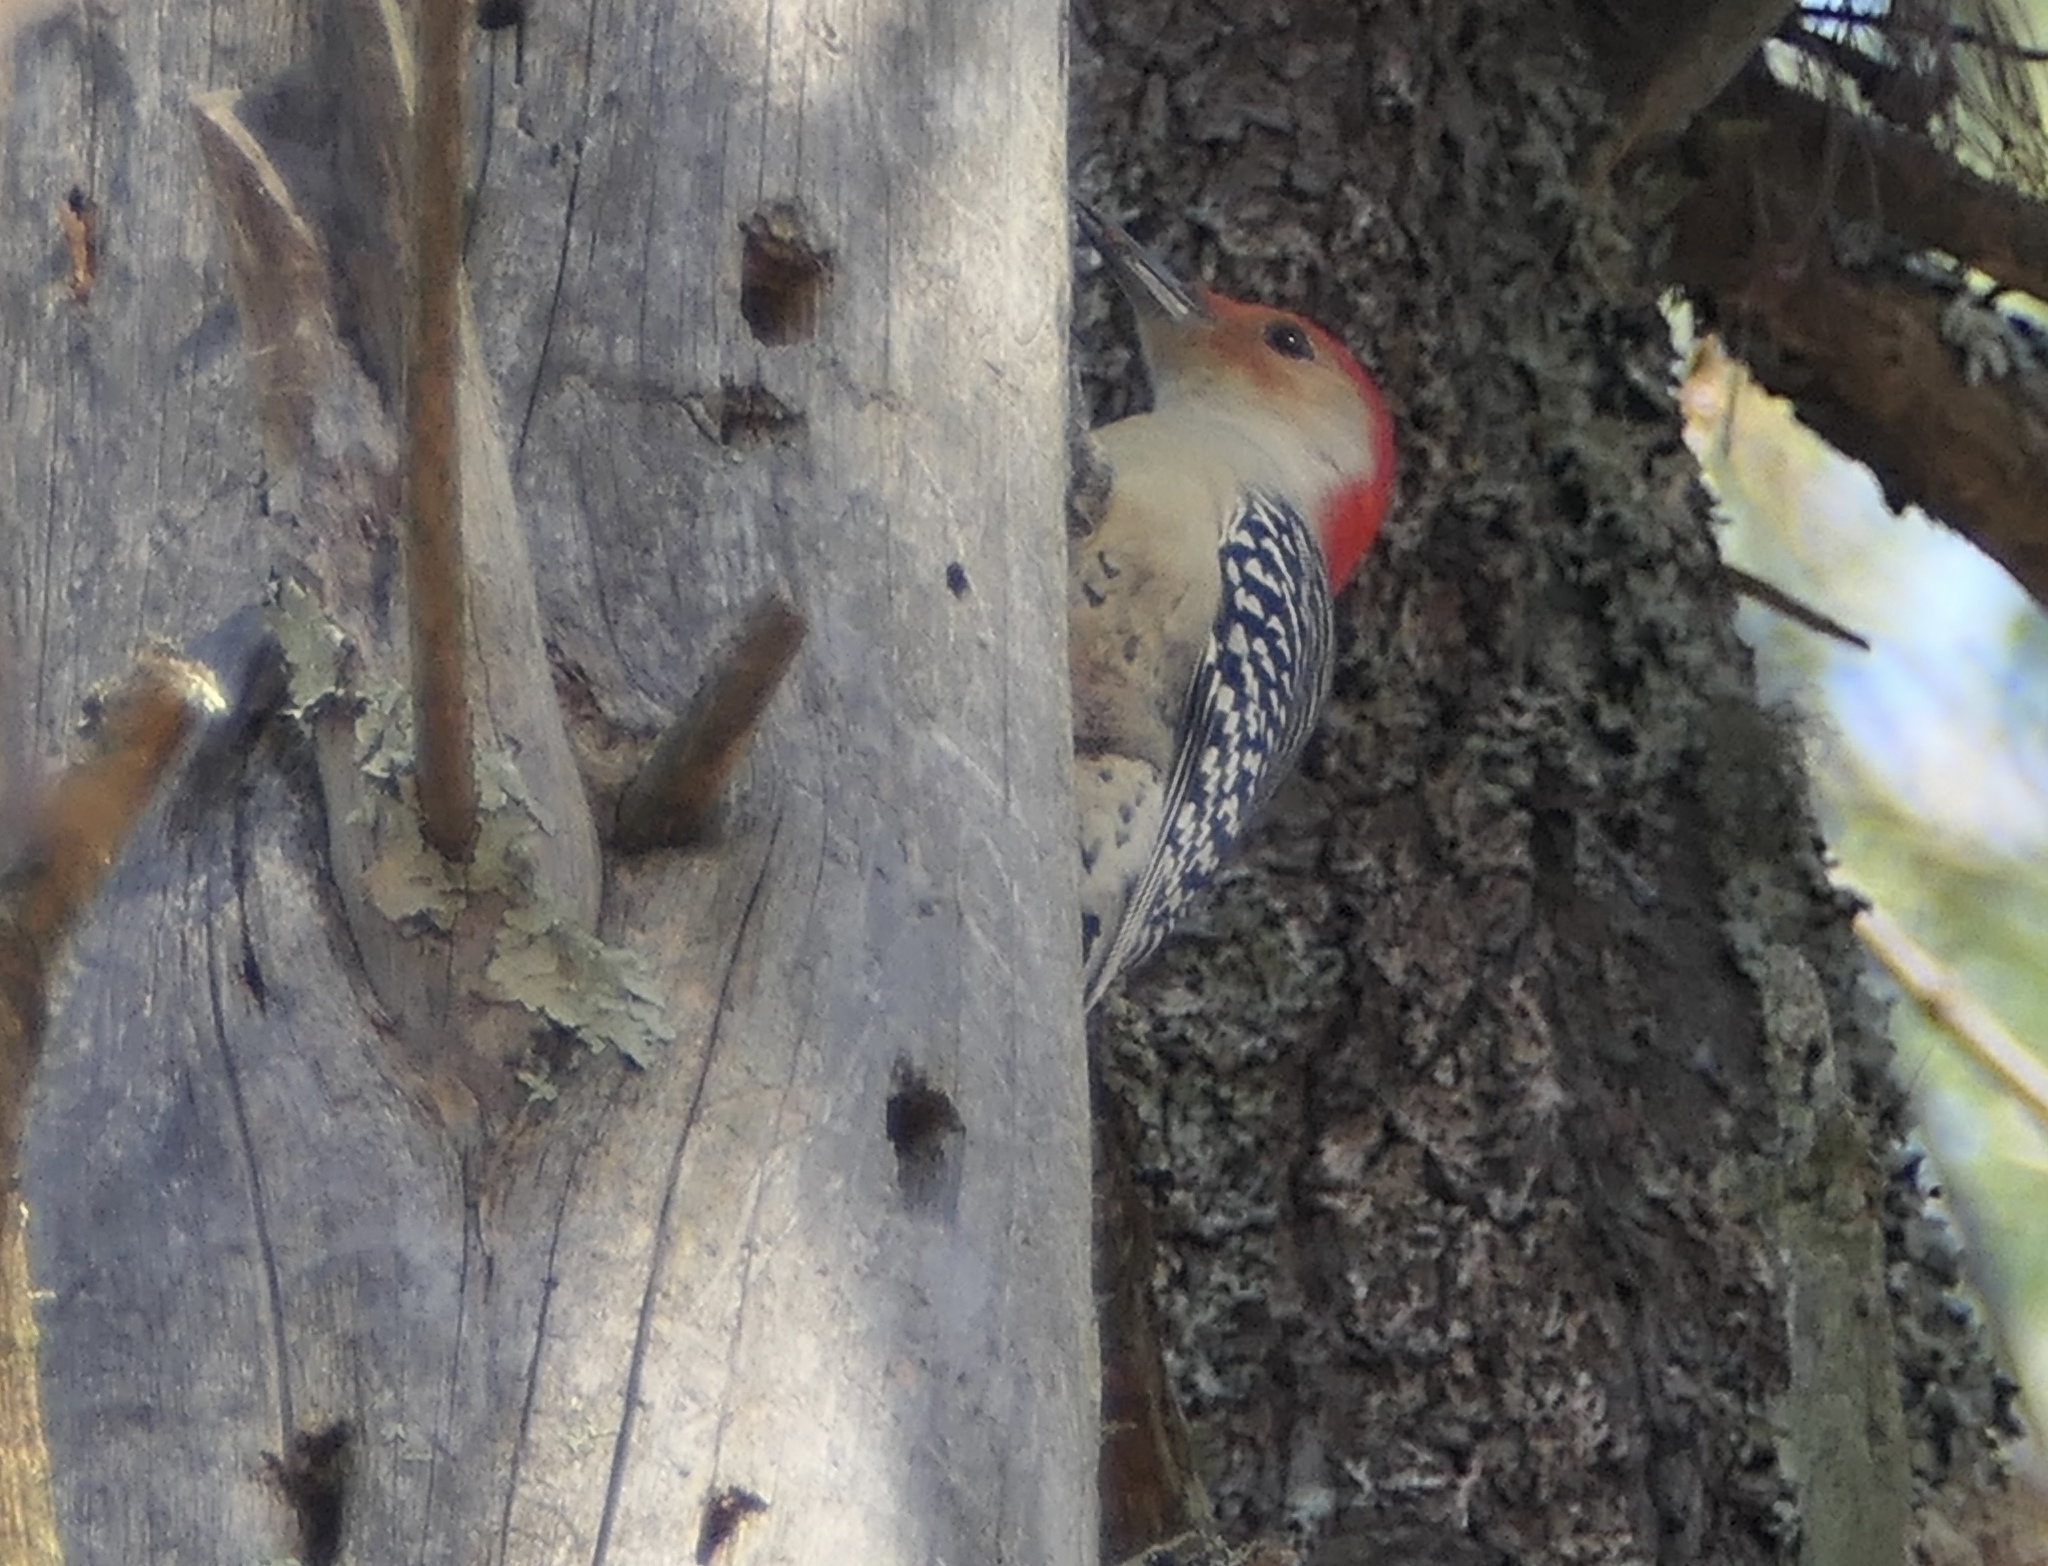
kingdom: Animalia
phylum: Chordata
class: Aves
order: Piciformes
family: Picidae
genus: Melanerpes
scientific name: Melanerpes carolinus
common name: Red-bellied woodpecker
